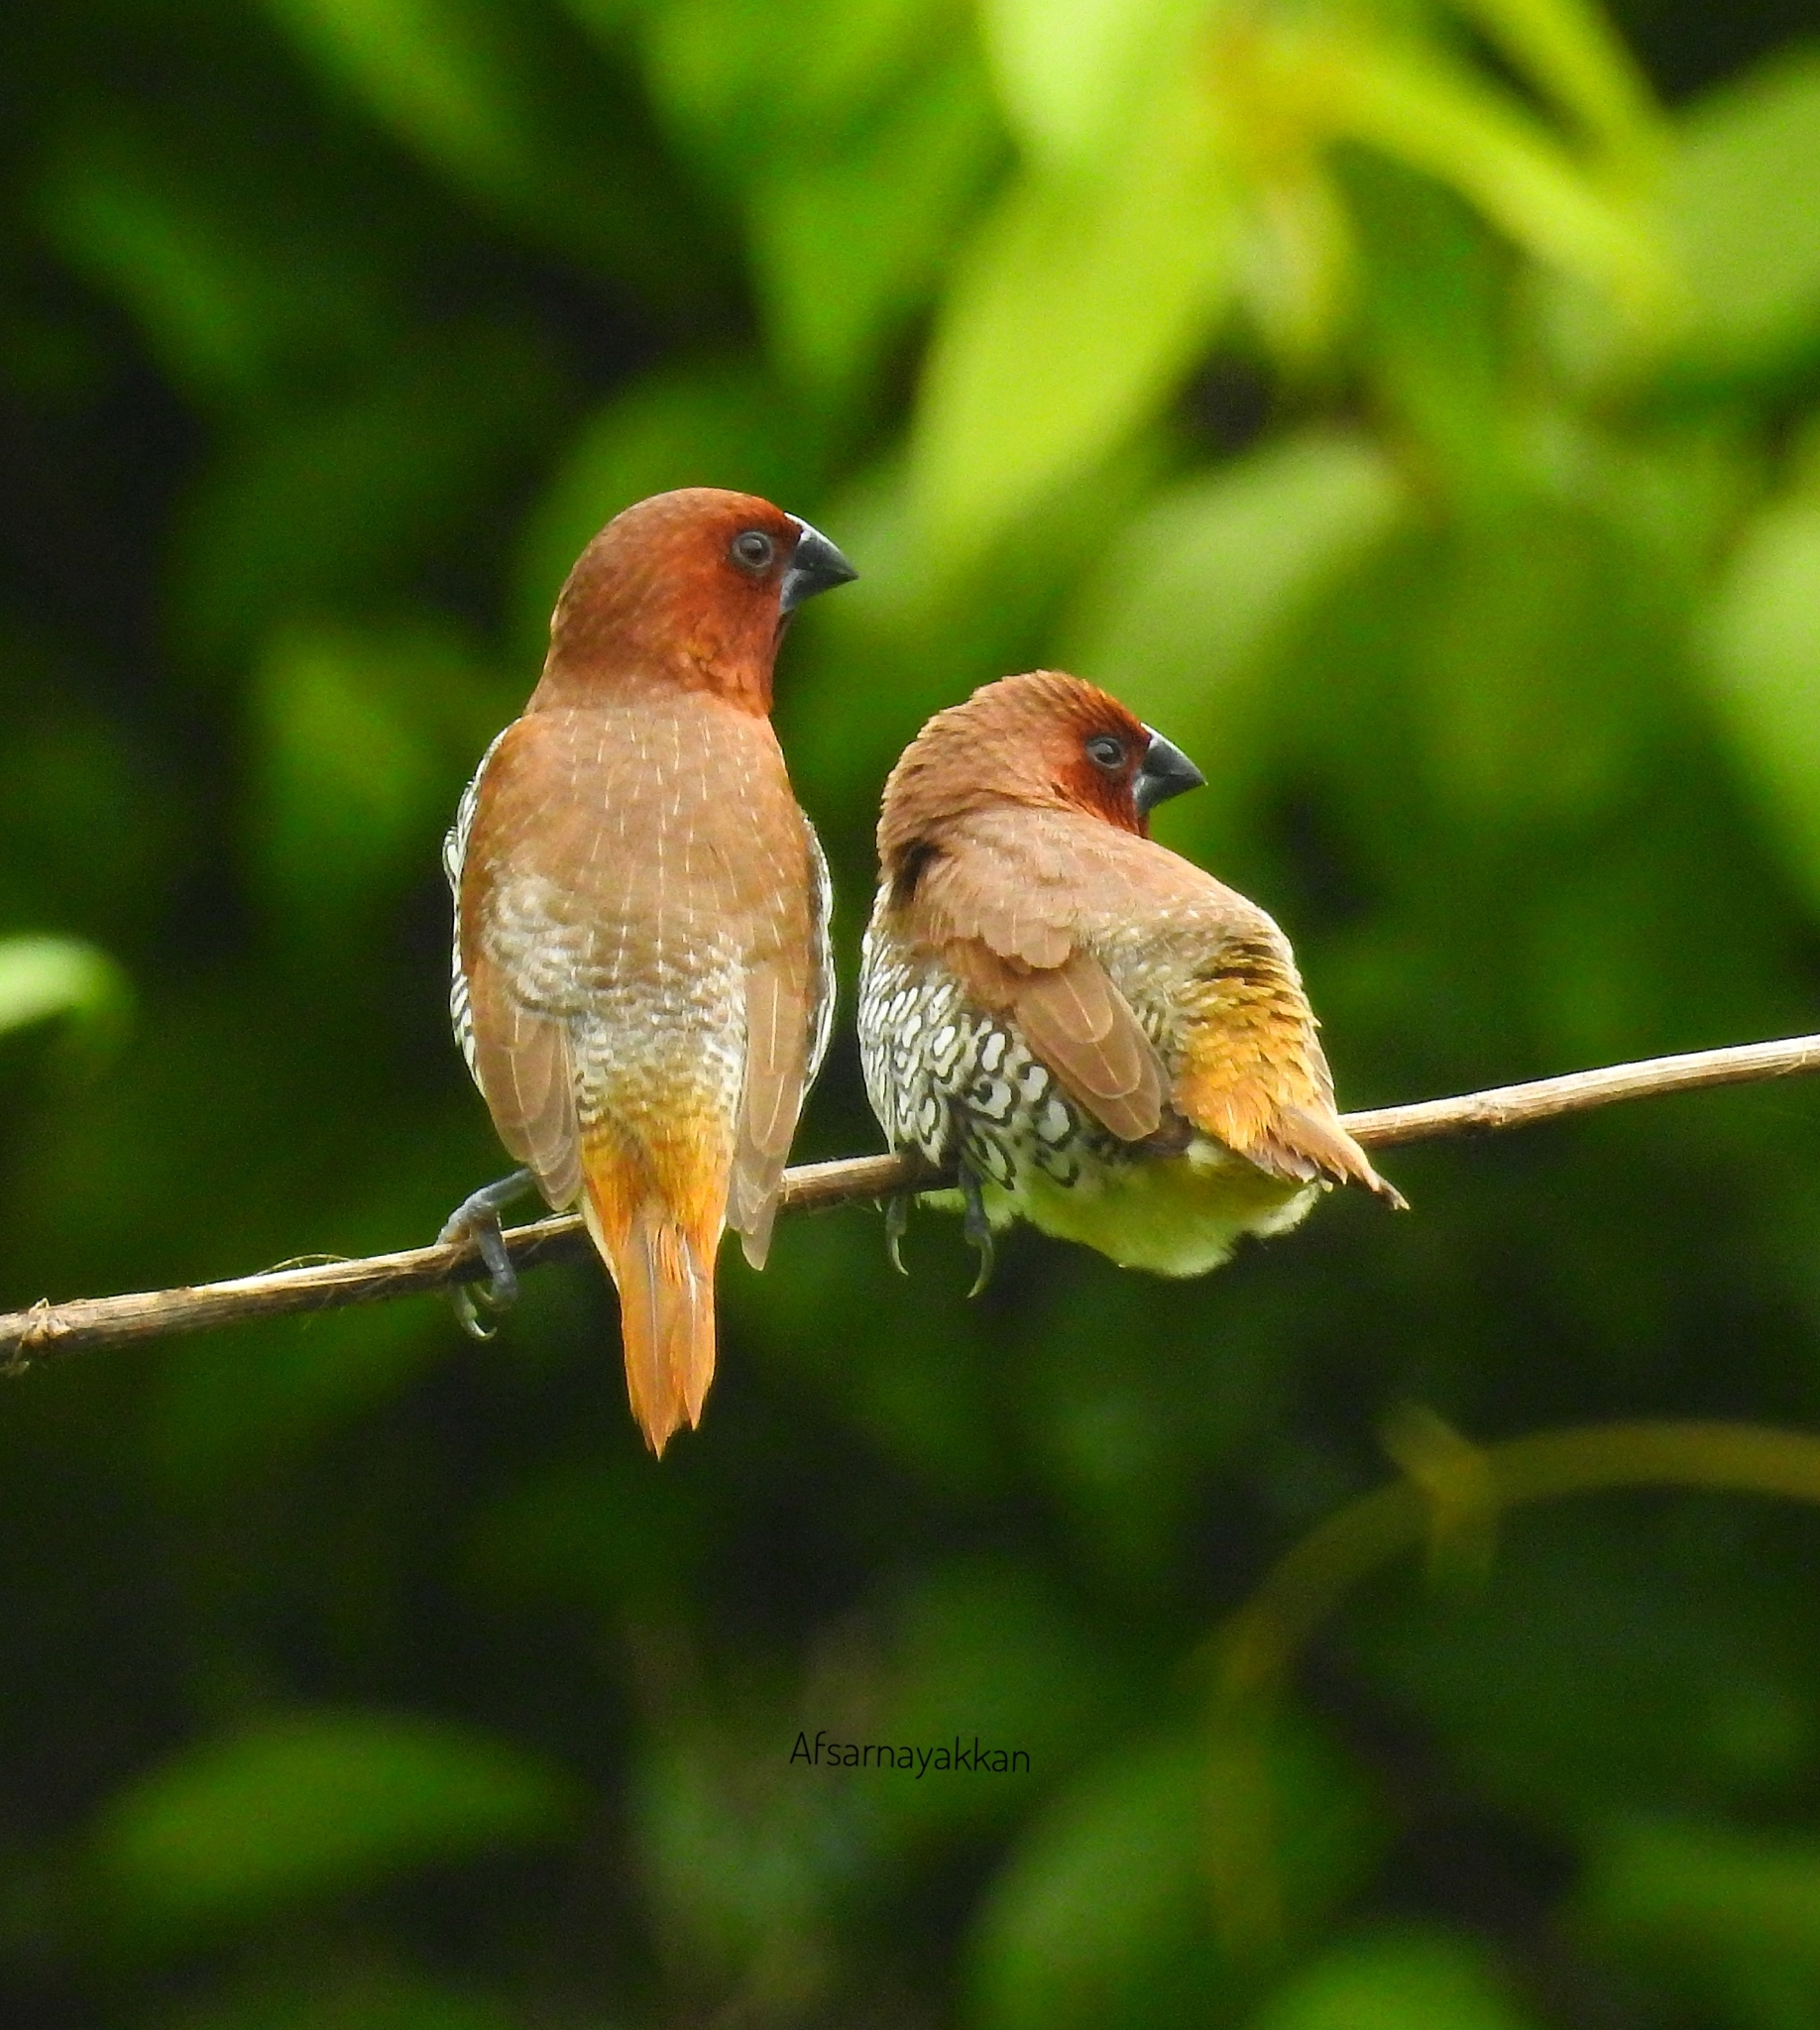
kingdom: Animalia
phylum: Chordata
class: Aves
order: Passeriformes
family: Estrildidae
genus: Lonchura
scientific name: Lonchura punctulata
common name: Scaly-breasted munia
